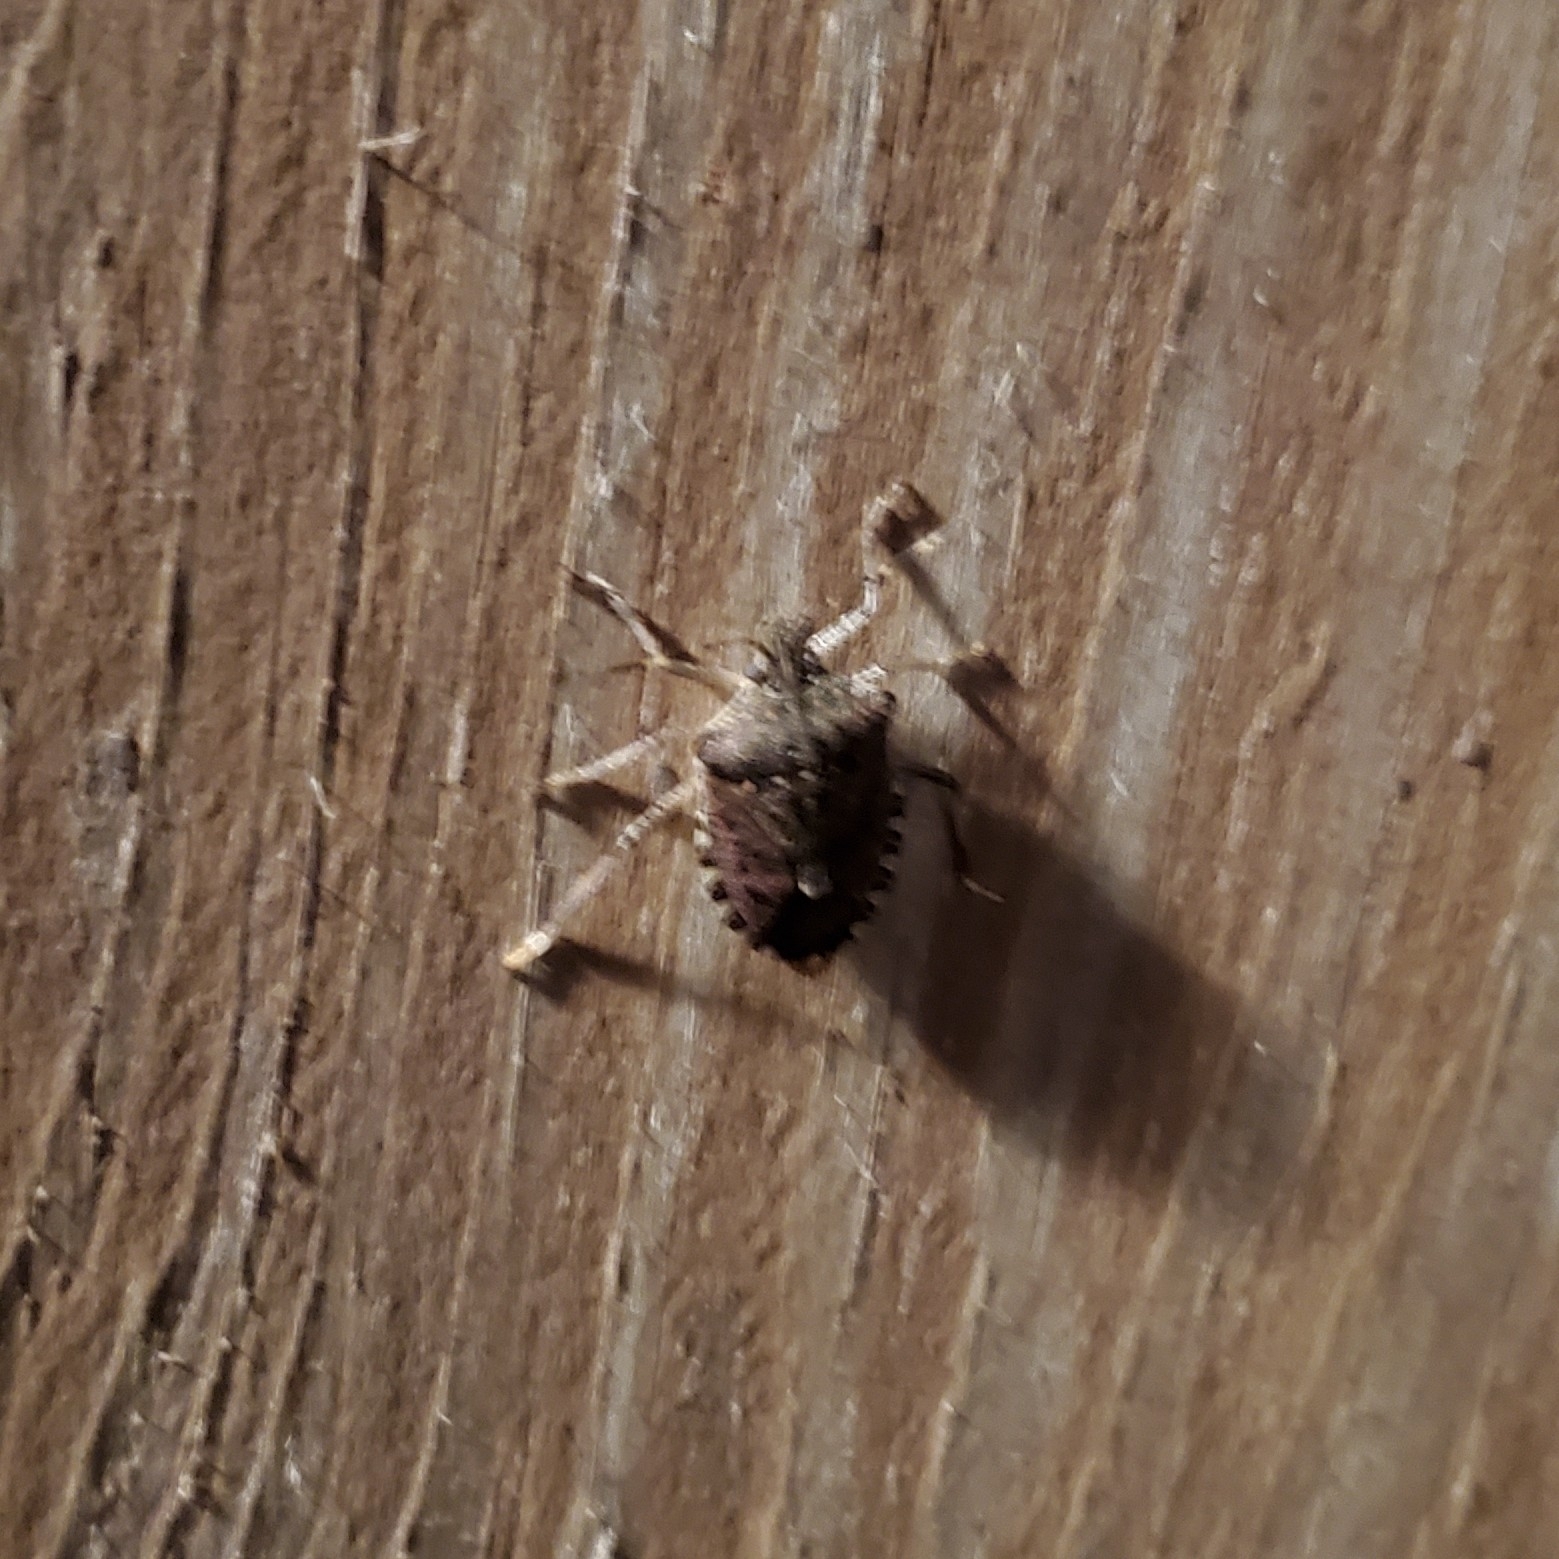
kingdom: Animalia
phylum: Arthropoda
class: Insecta
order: Hemiptera
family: Pentatomidae
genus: Halyomorpha
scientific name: Halyomorpha halys
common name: Brown marmorated stink bug
